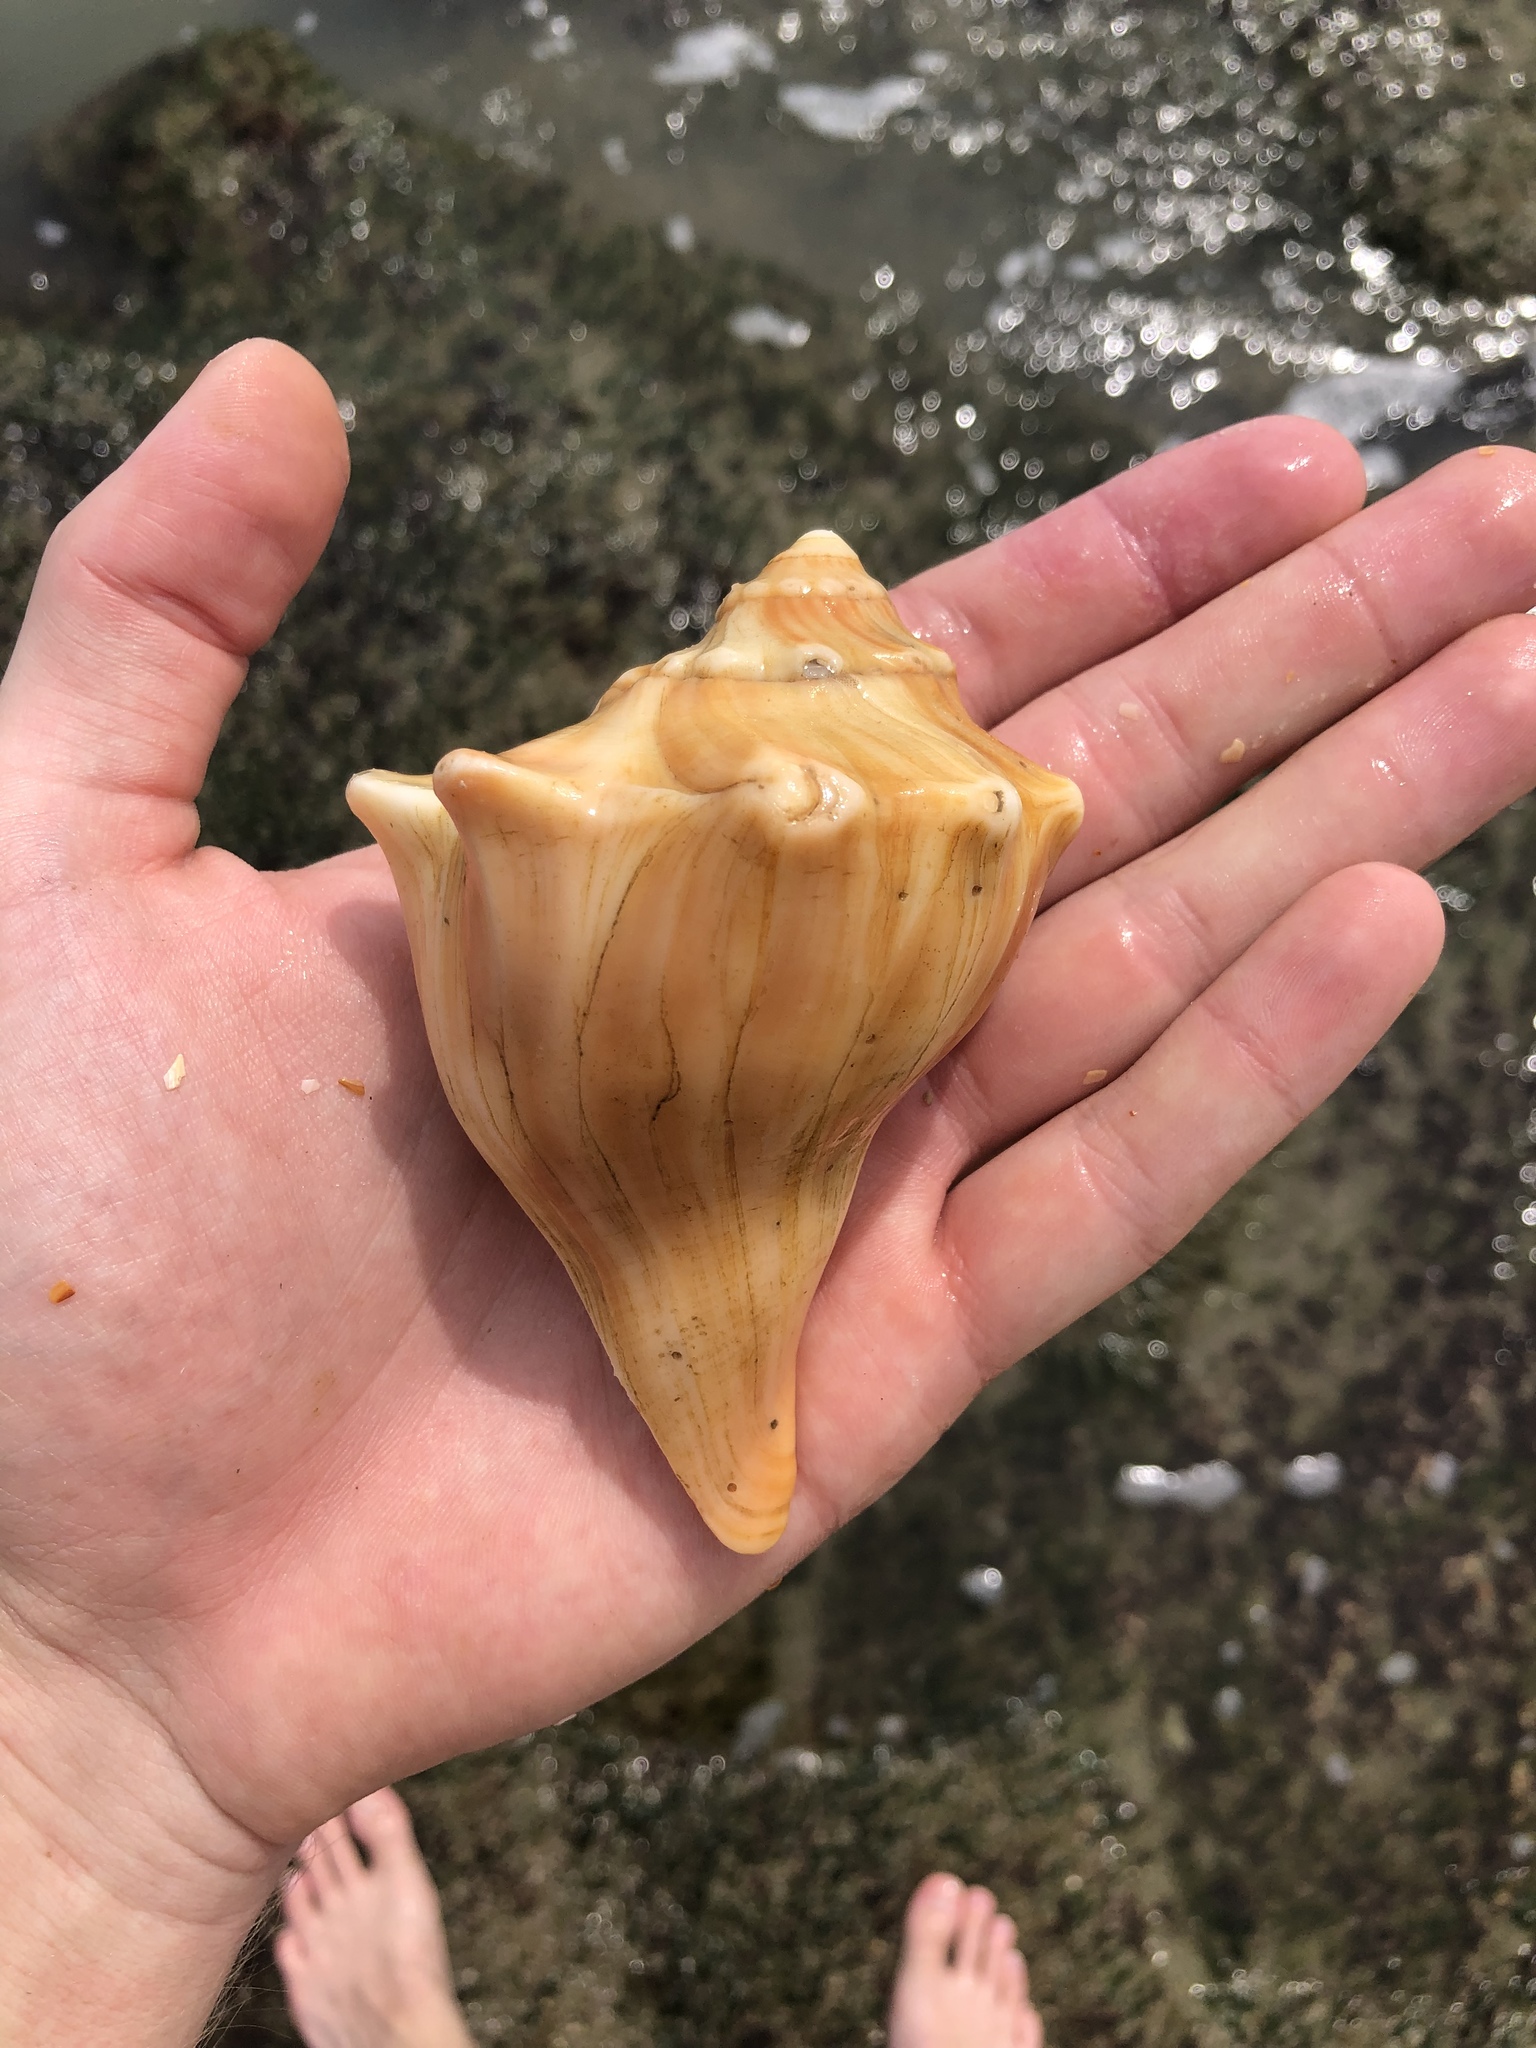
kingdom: Animalia
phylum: Mollusca
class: Gastropoda
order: Neogastropoda
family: Busyconidae
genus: Busycon
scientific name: Busycon carica
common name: Knobbed whelk
